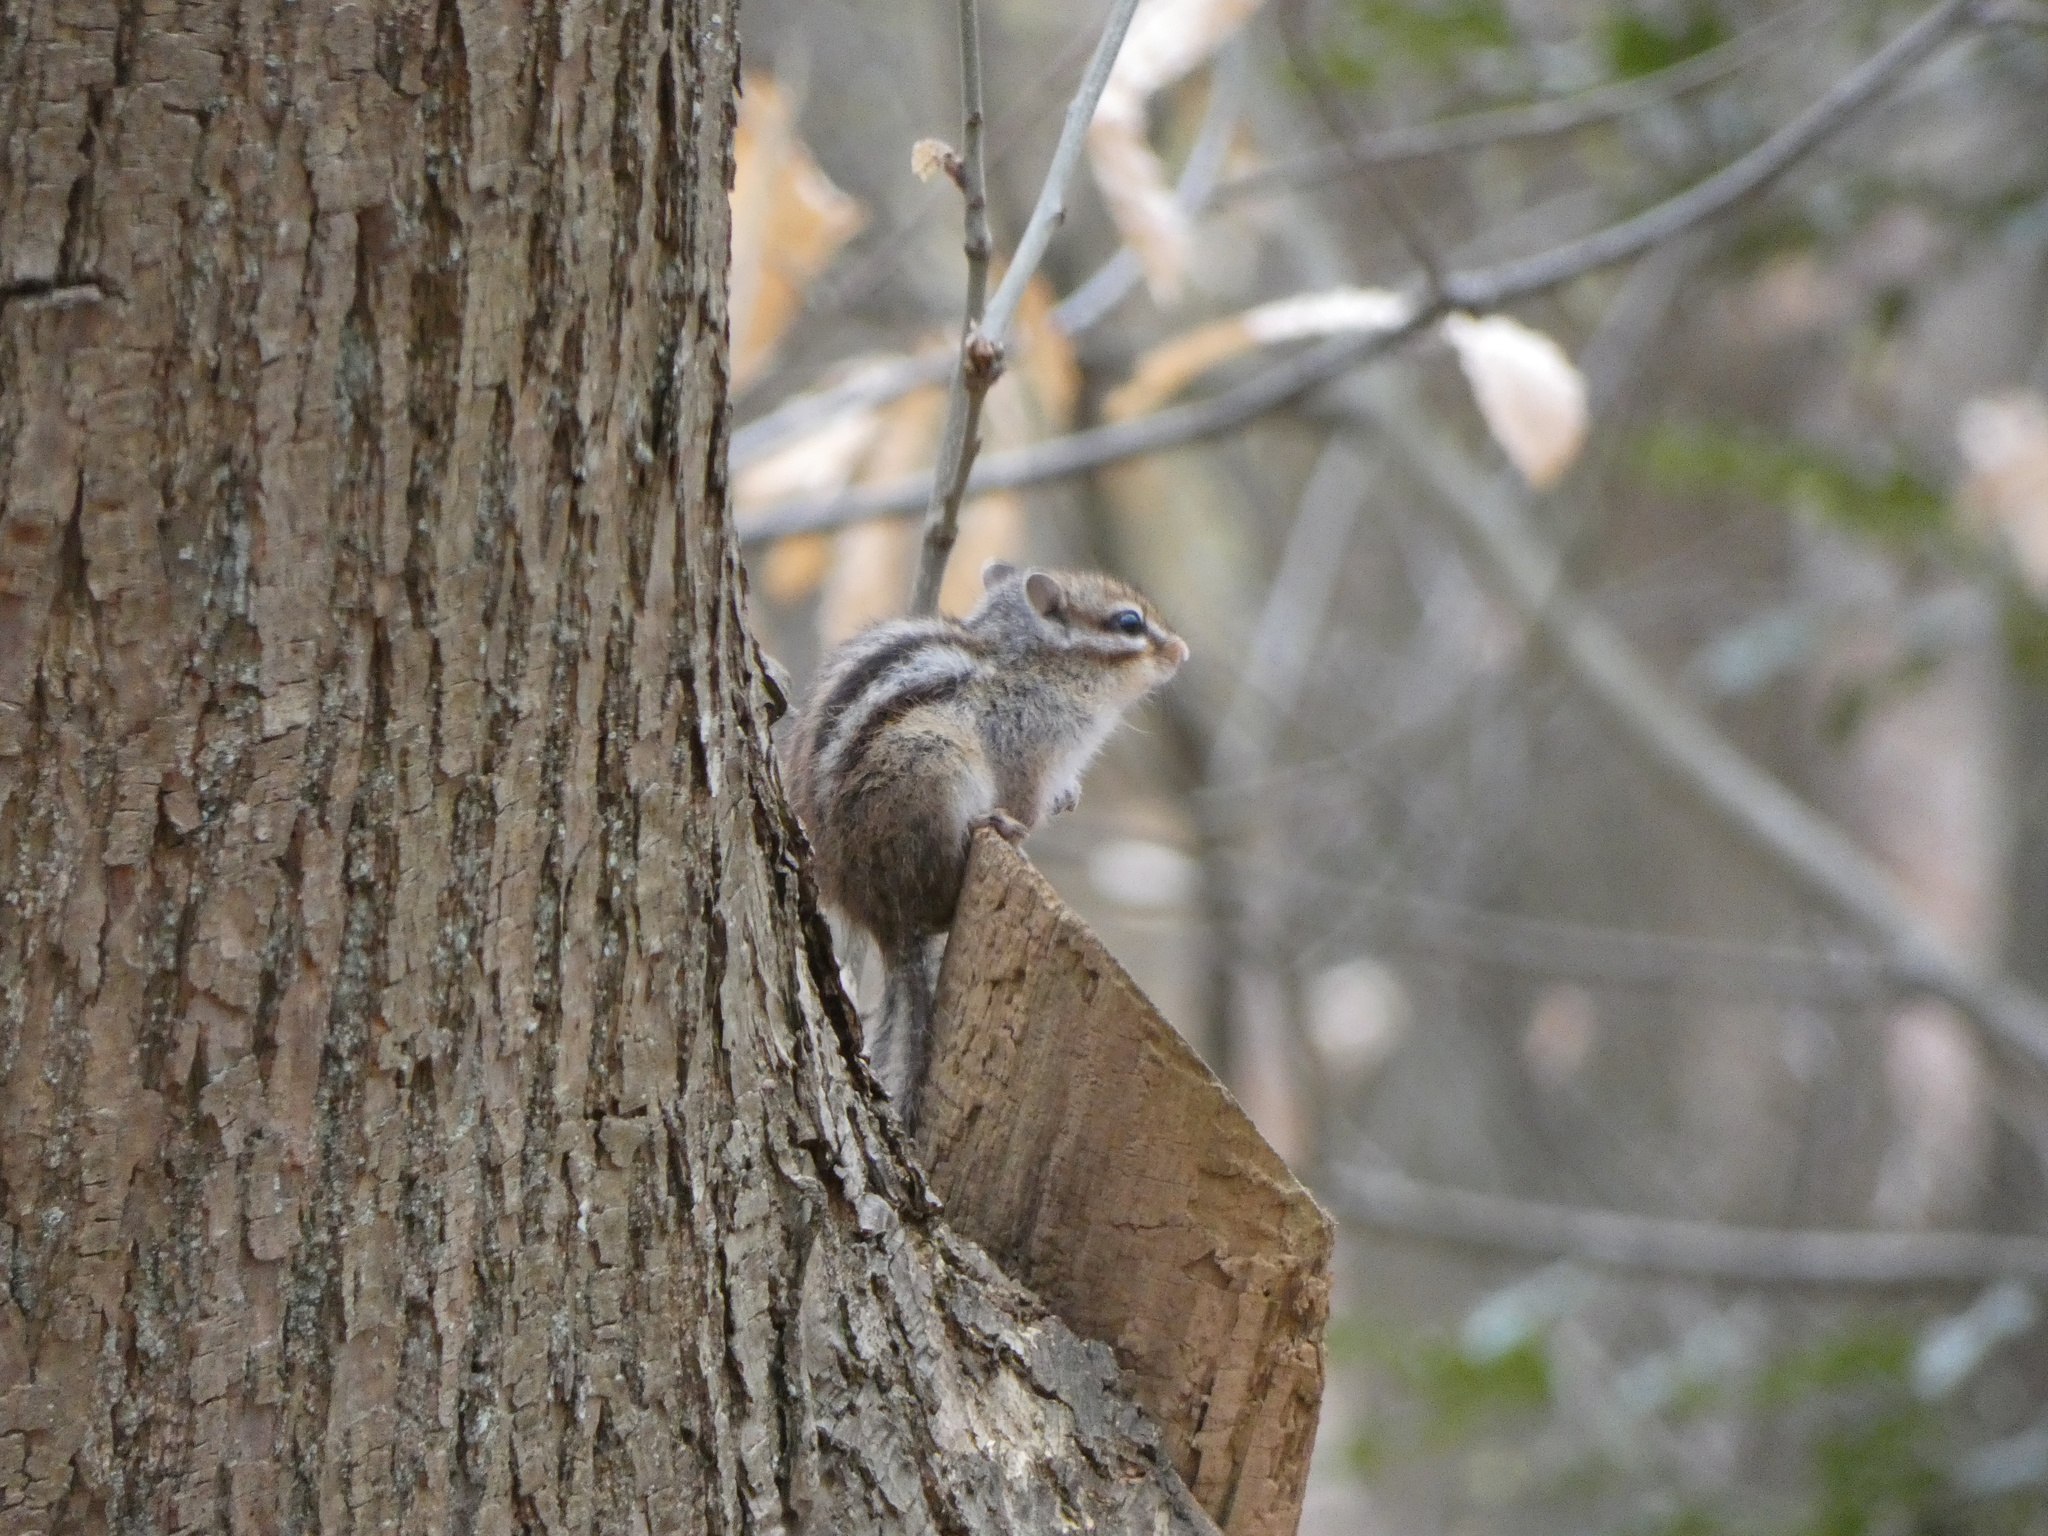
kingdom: Animalia
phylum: Chordata
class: Mammalia
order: Rodentia
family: Sciuridae
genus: Tamias
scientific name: Tamias sibiricus
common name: Siberian chipmunk
